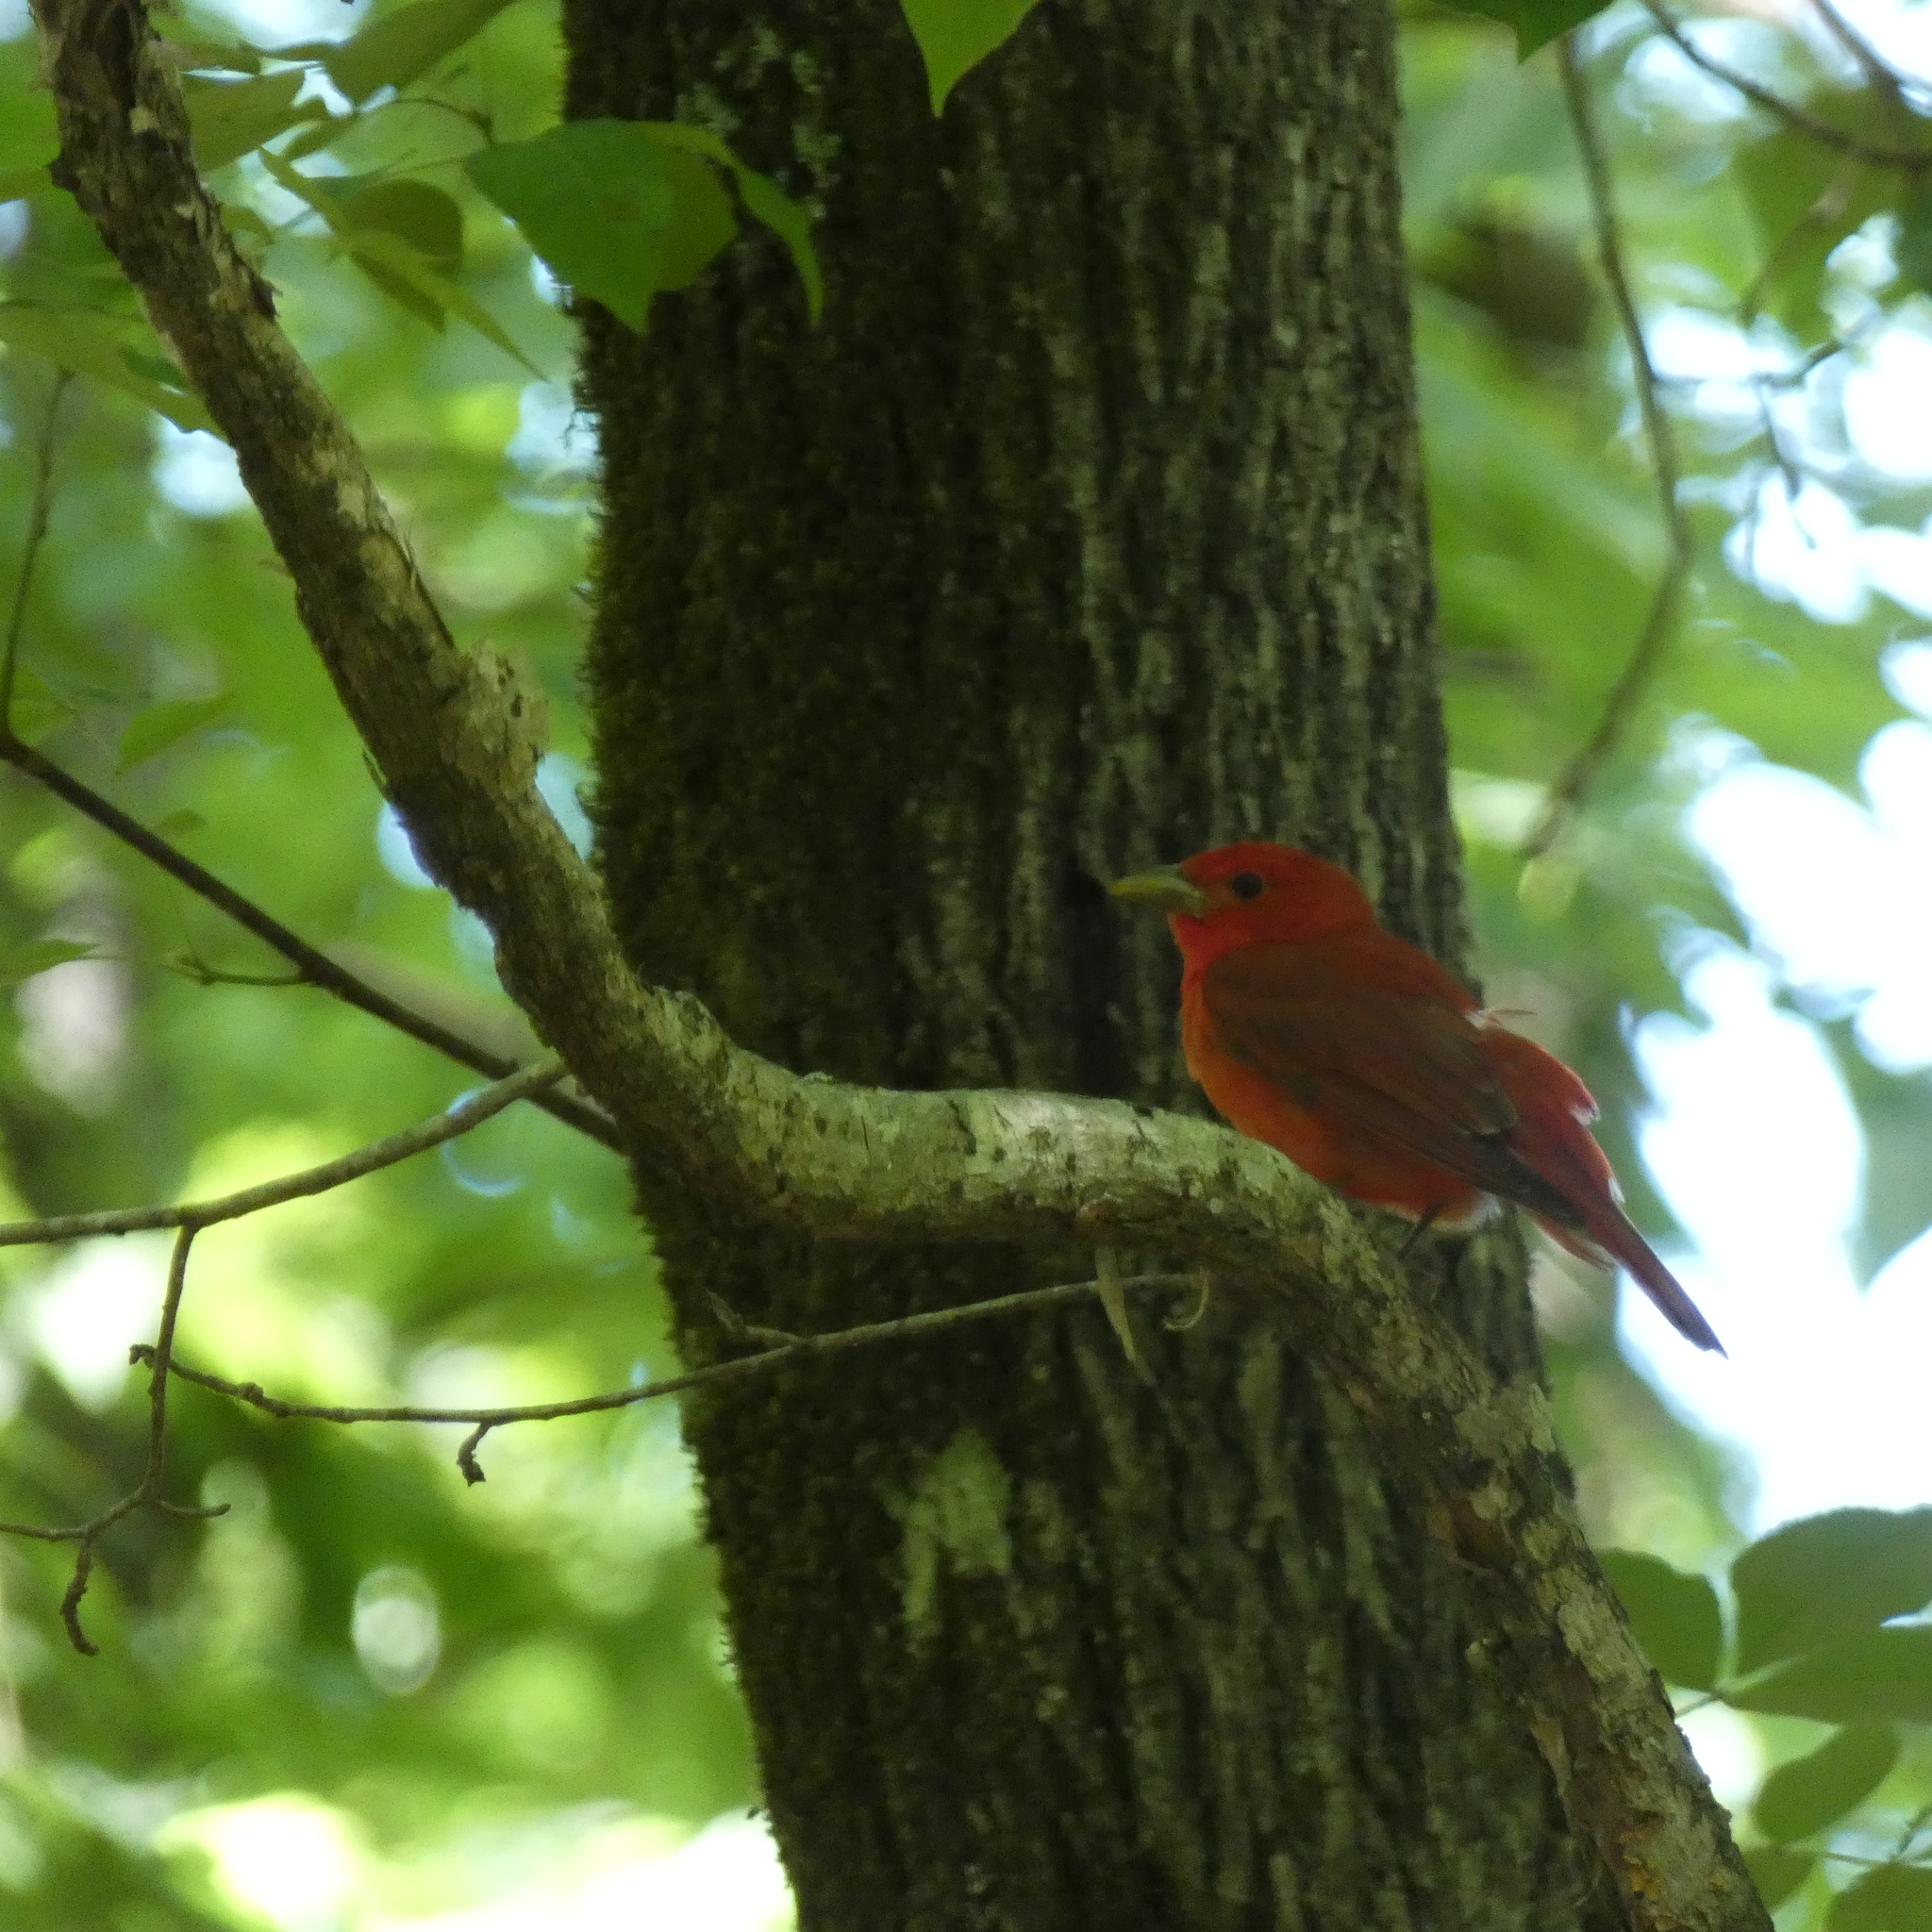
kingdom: Animalia
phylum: Chordata
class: Aves
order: Passeriformes
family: Cardinalidae
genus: Piranga
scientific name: Piranga rubra
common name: Summer tanager
